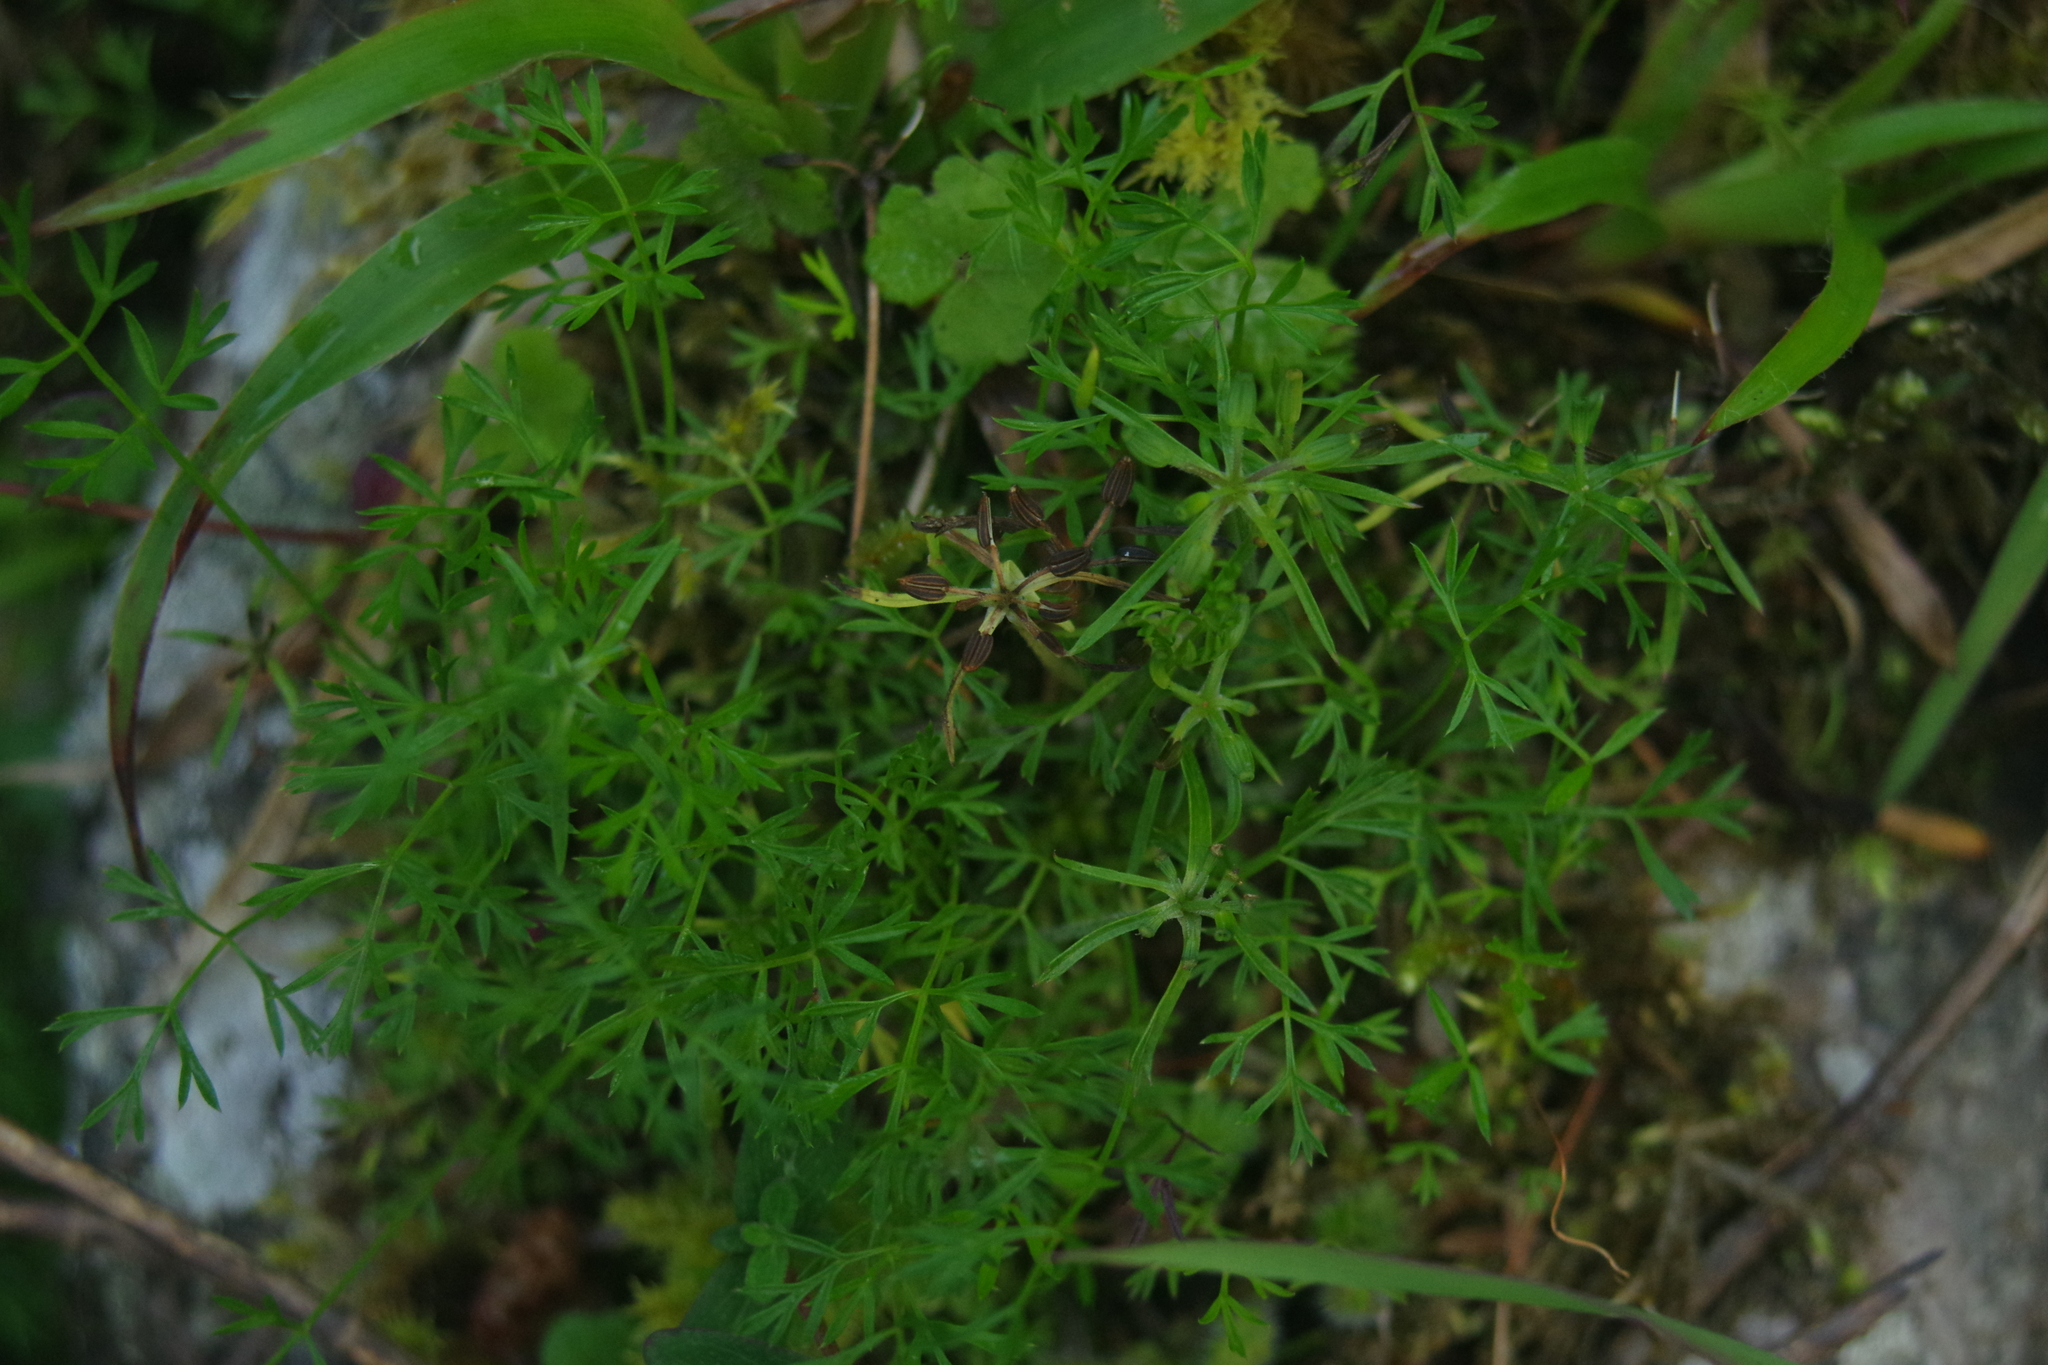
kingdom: Plantae
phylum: Tracheophyta
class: Magnoliopsida
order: Apiales
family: Apiaceae
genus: Chaerophyllum
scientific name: Chaerophyllum involucratum
